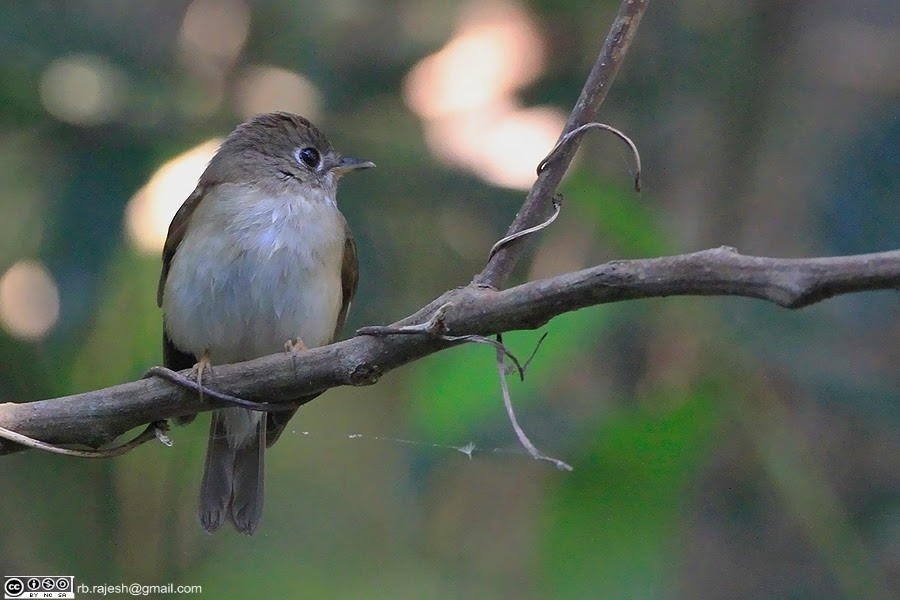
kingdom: Animalia
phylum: Chordata
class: Aves
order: Passeriformes
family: Muscicapidae
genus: Muscicapa
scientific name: Muscicapa muttui
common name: Brown-breasted flycatcher
